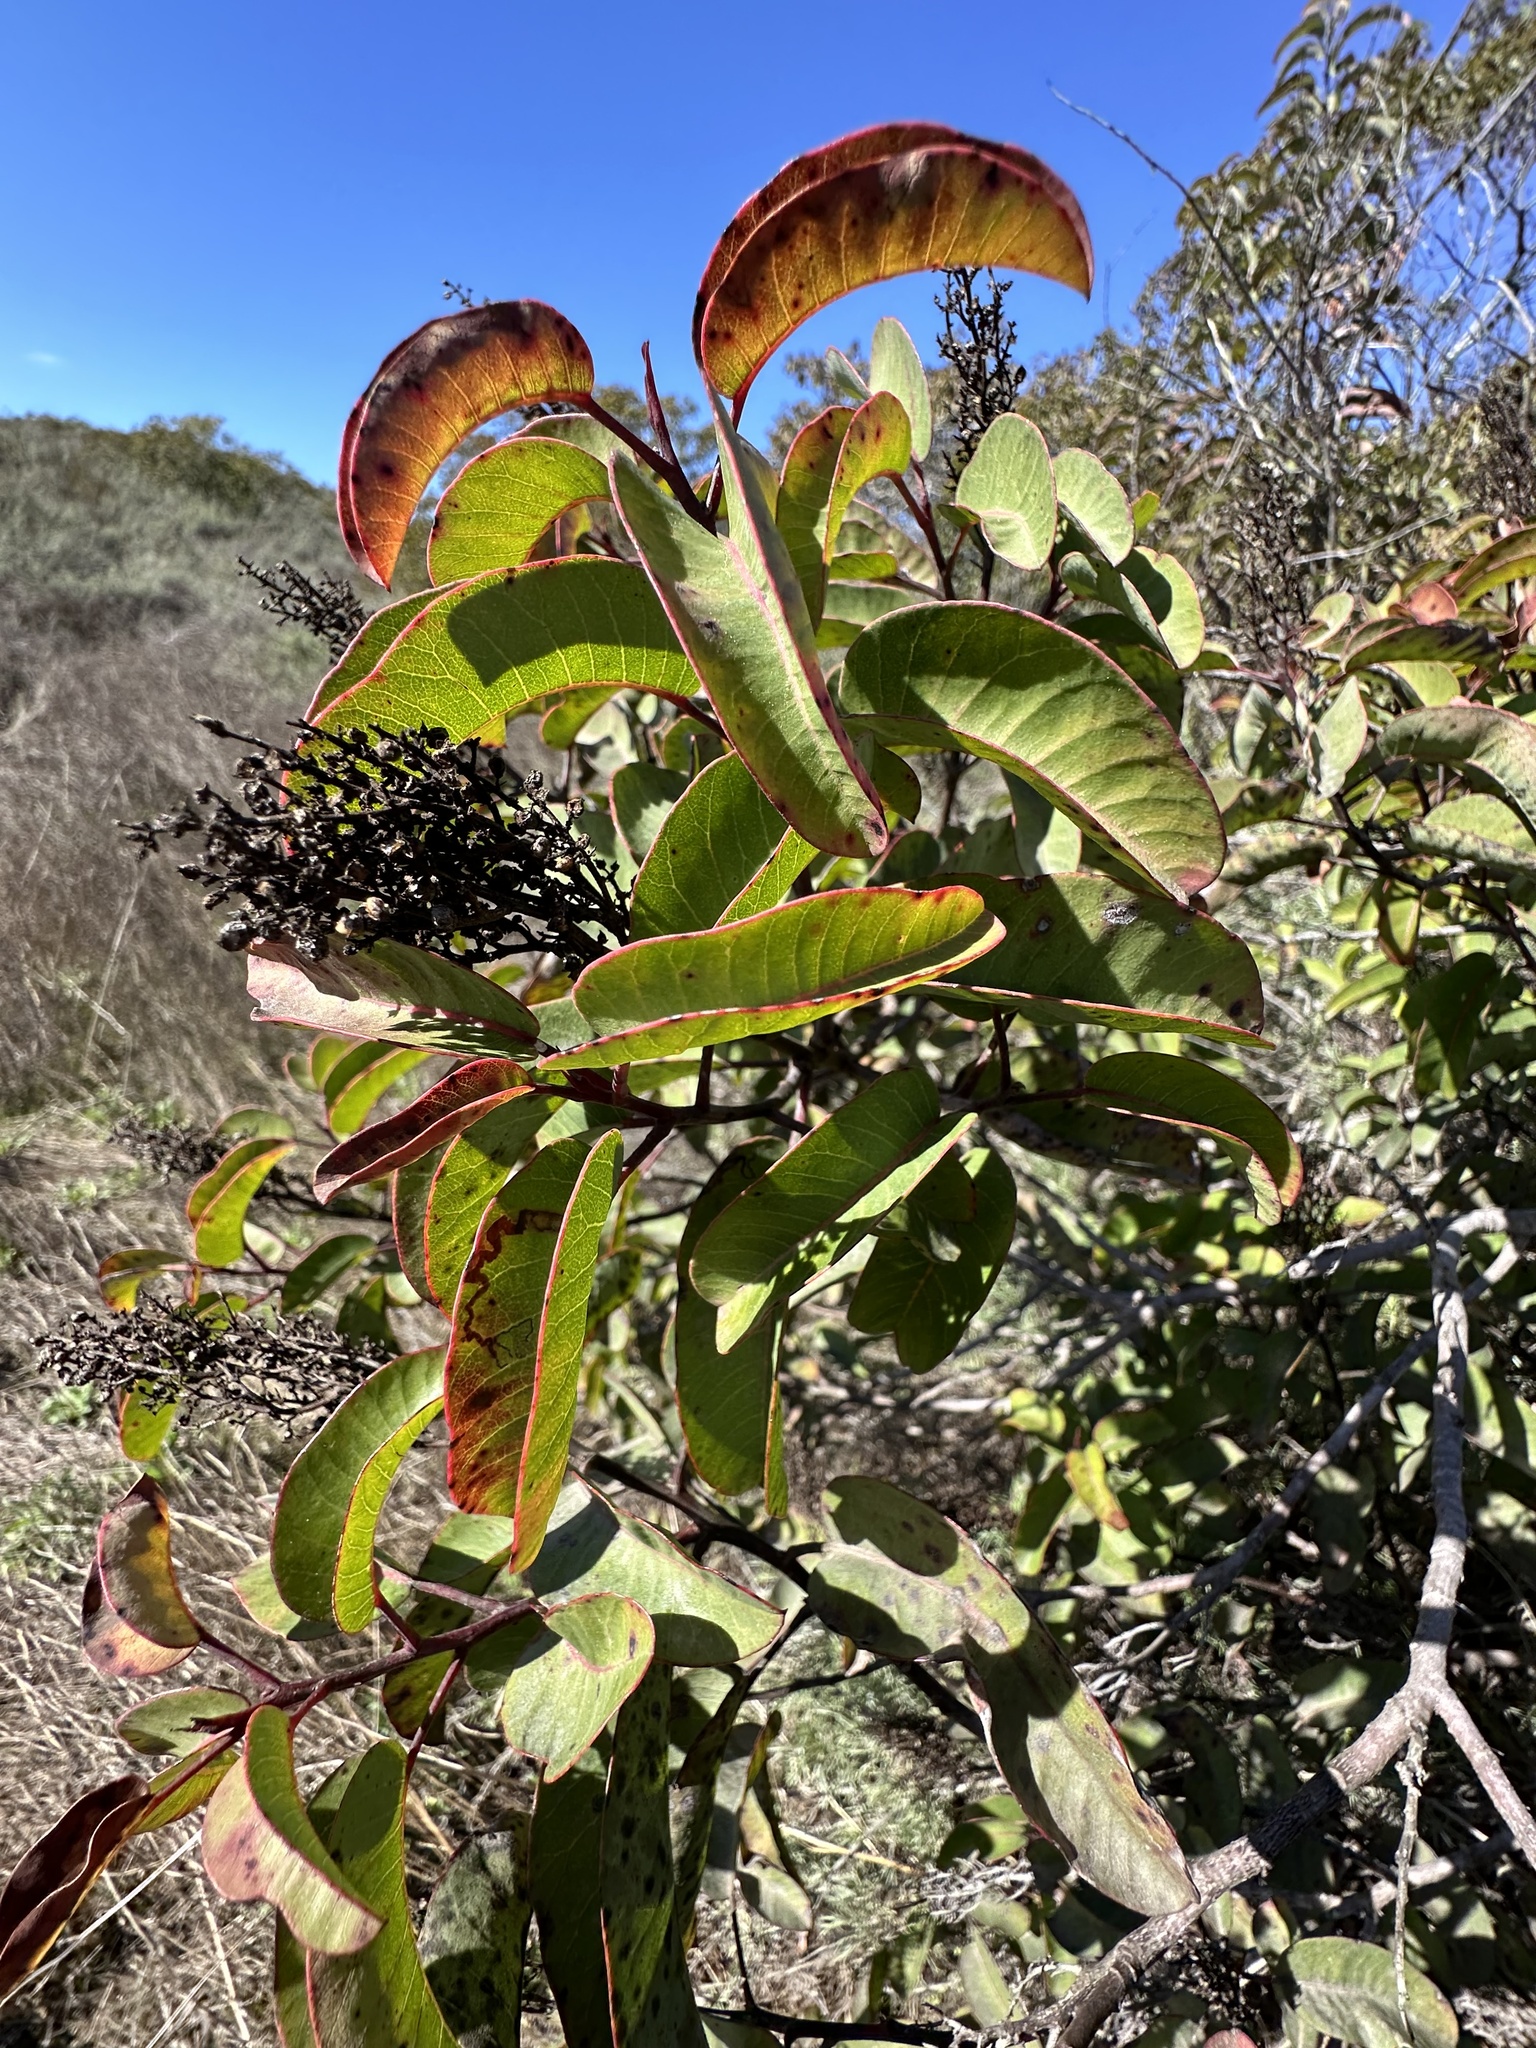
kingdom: Plantae
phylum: Tracheophyta
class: Magnoliopsida
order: Sapindales
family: Anacardiaceae
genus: Malosma
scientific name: Malosma laurina
